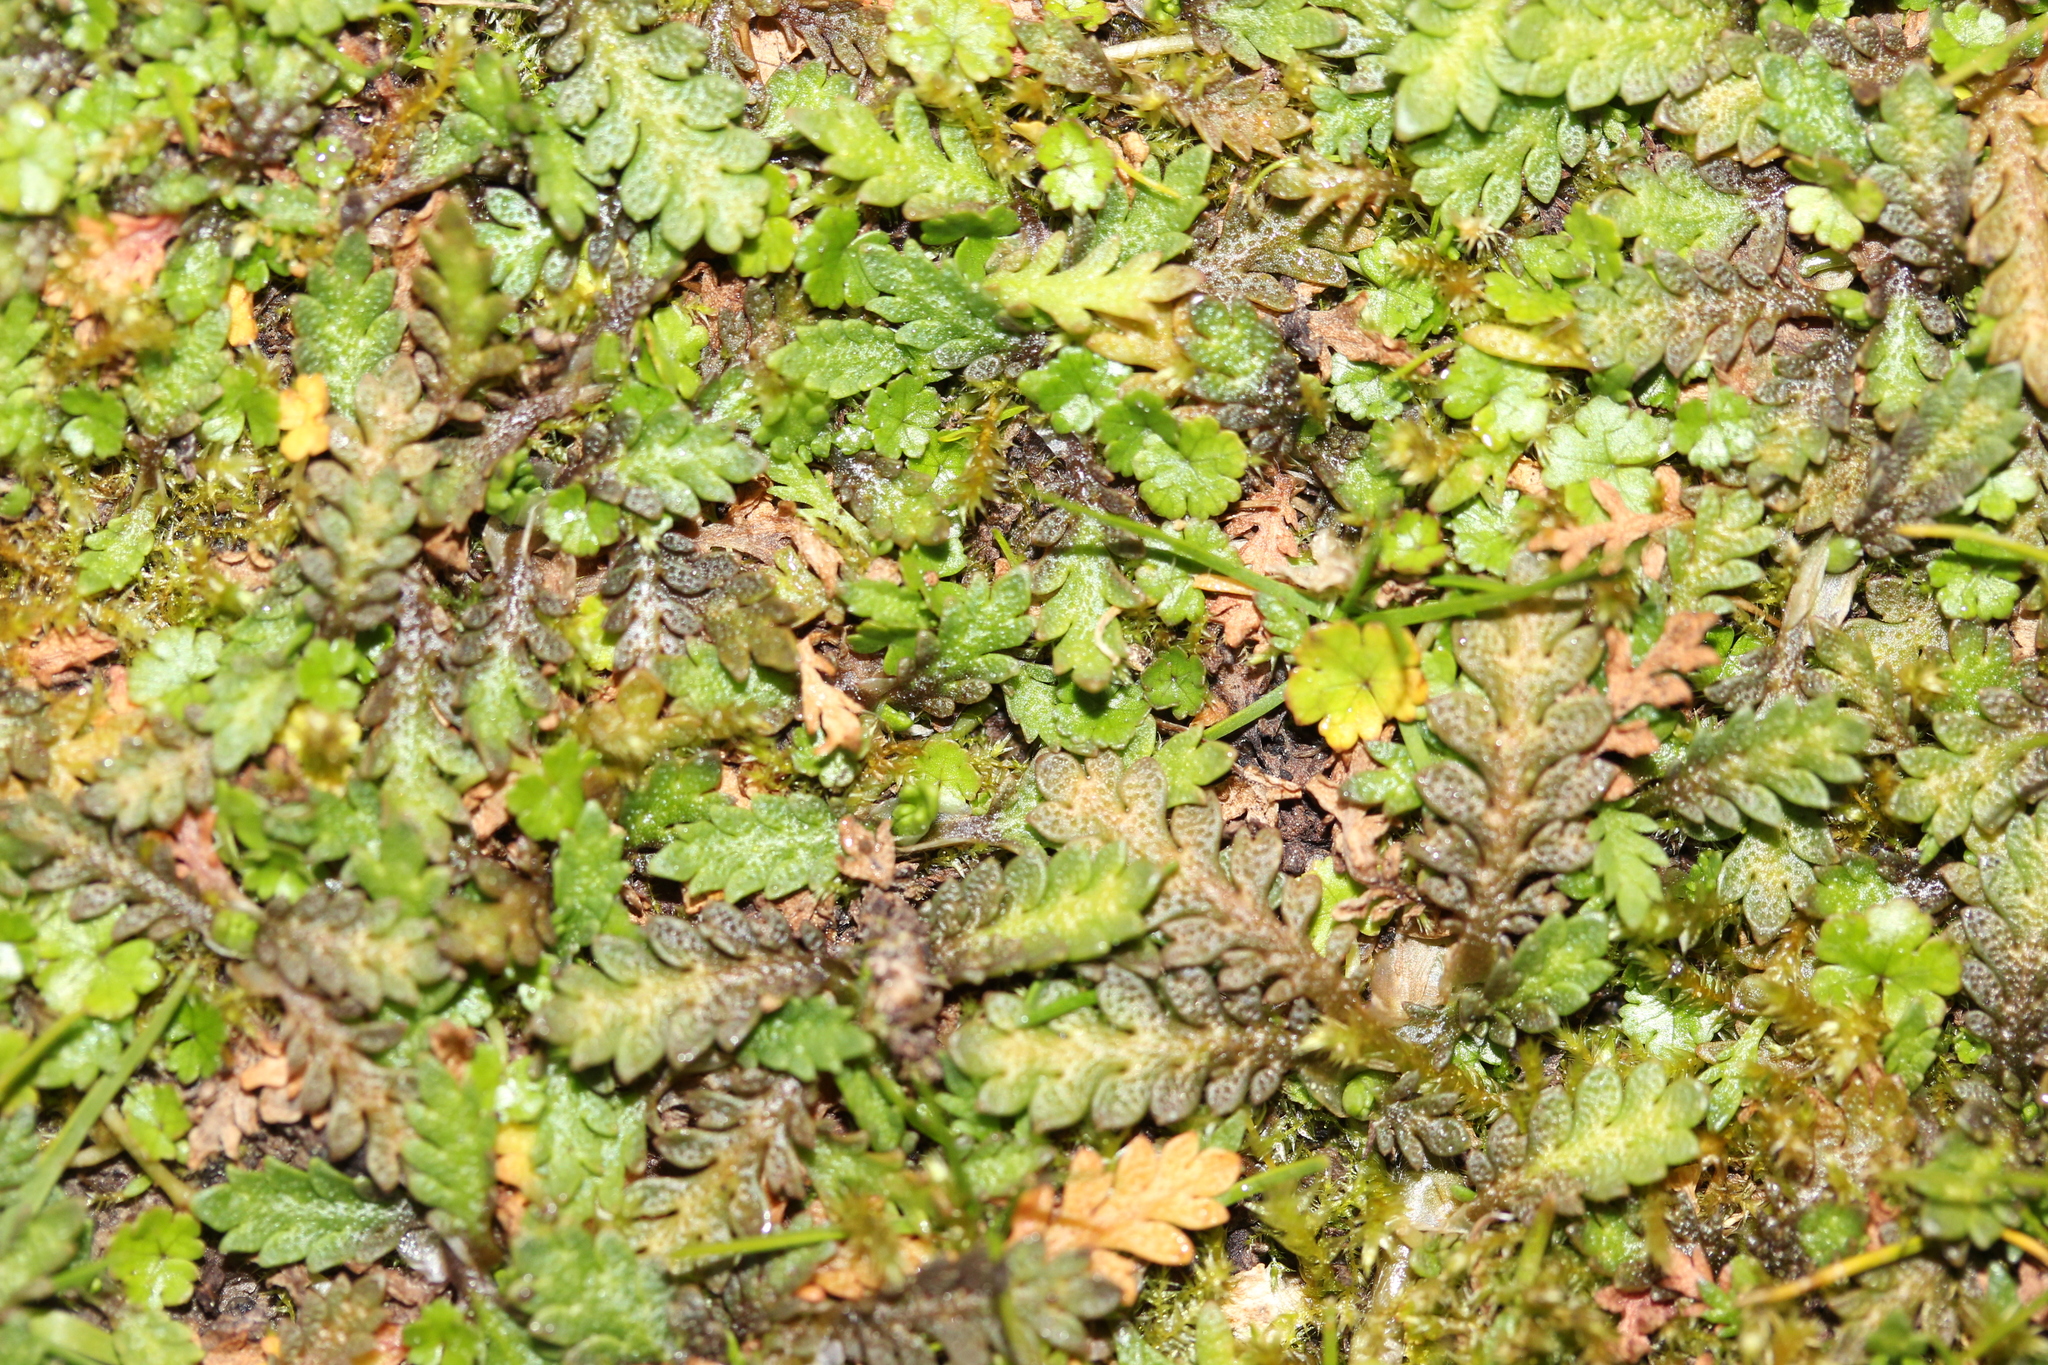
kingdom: Plantae
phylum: Tracheophyta
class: Magnoliopsida
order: Asterales
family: Asteraceae
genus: Leptinella
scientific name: Leptinella dioica
